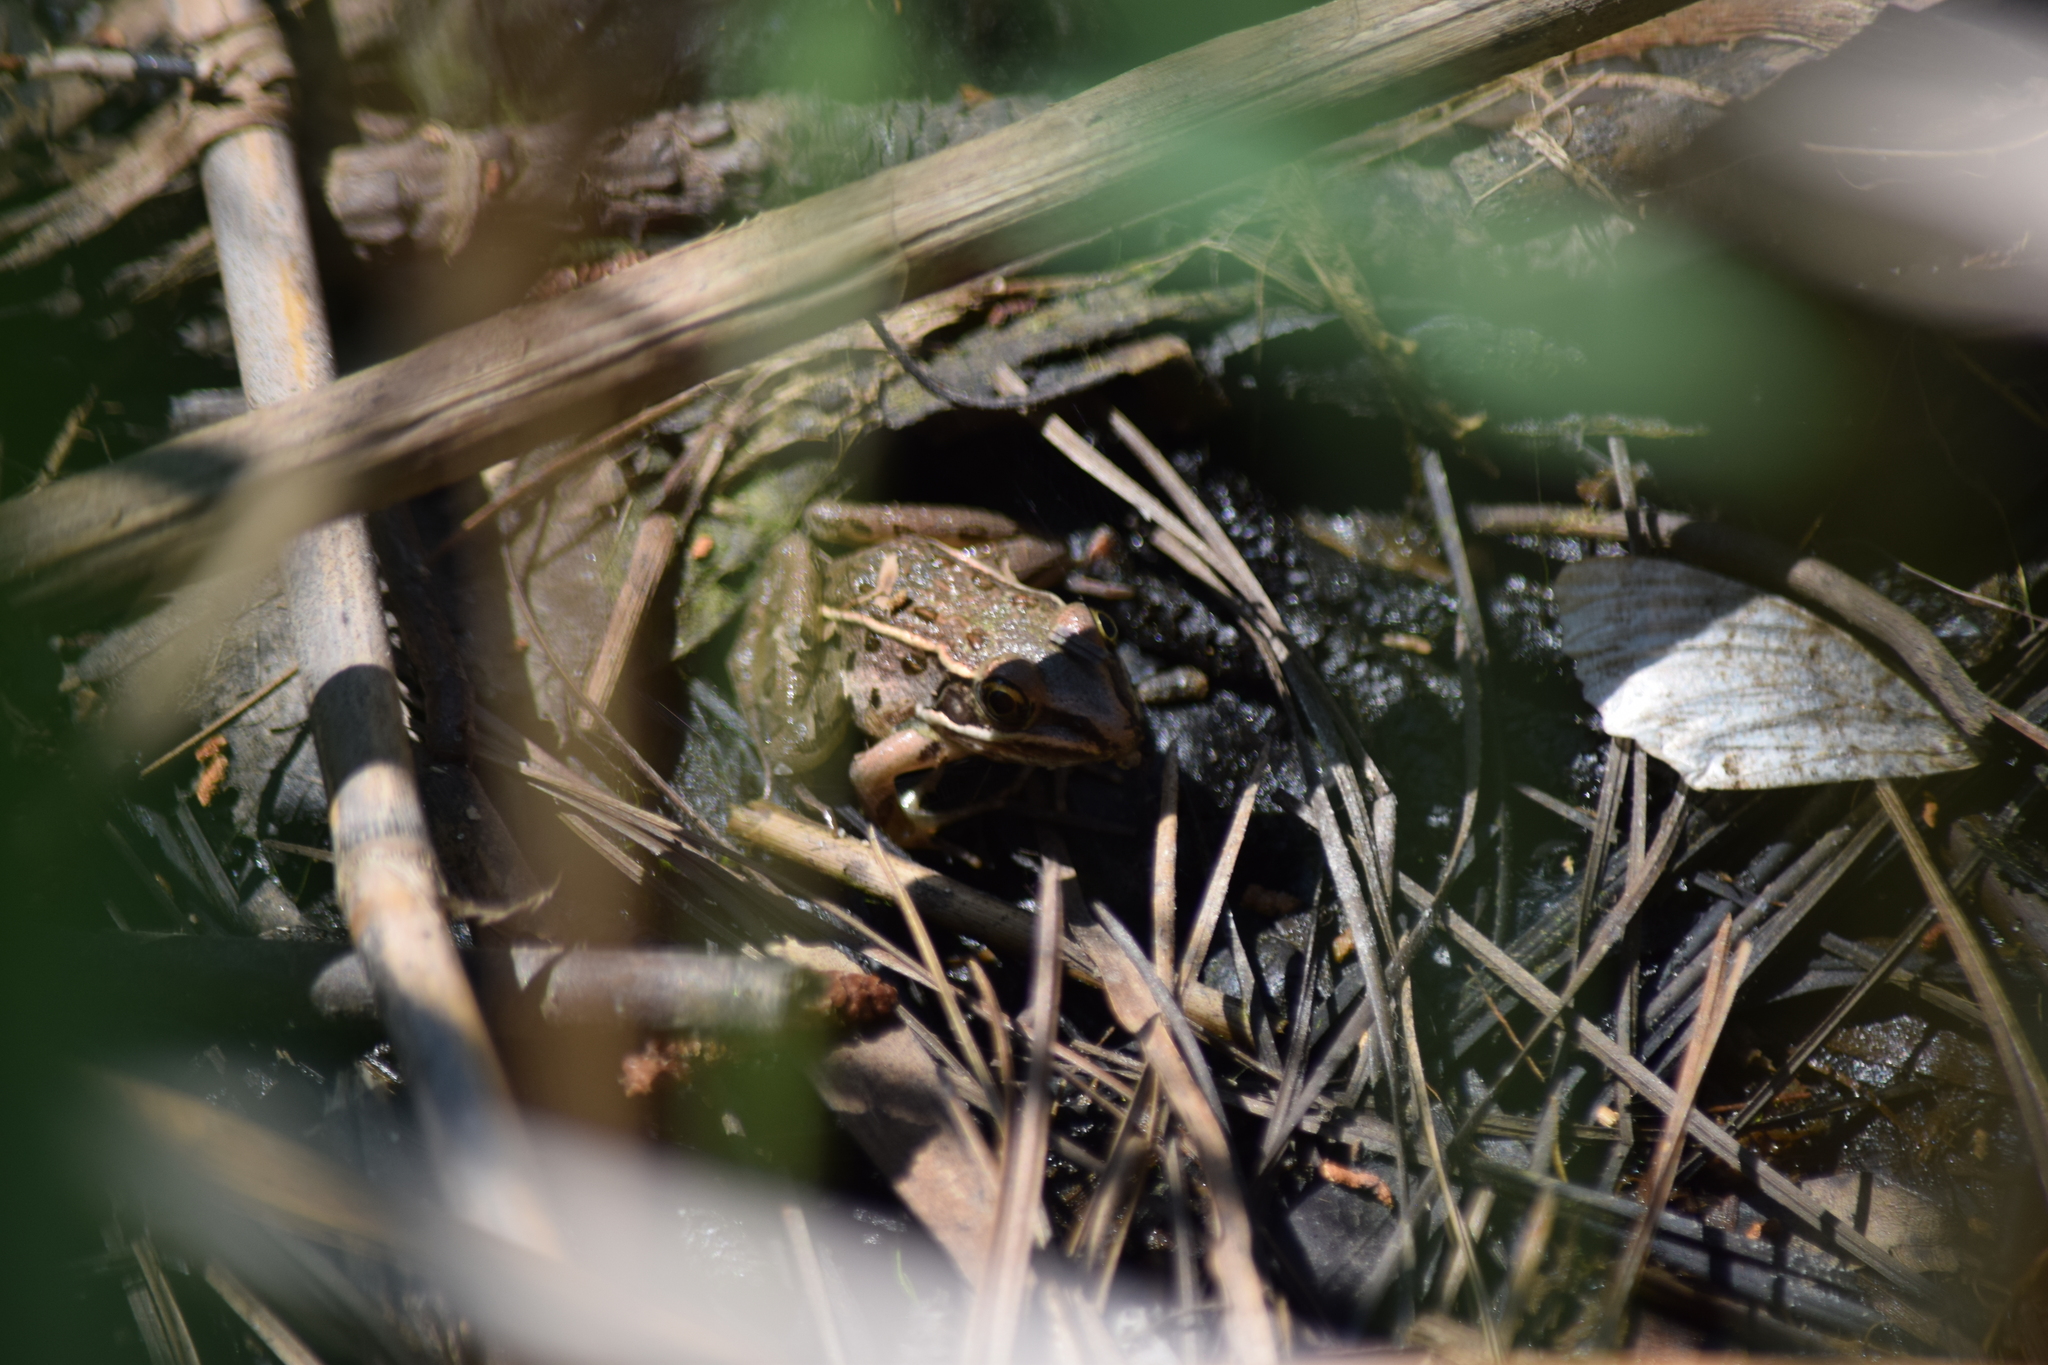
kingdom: Animalia
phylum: Chordata
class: Amphibia
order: Anura
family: Ranidae
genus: Lithobates
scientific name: Lithobates
